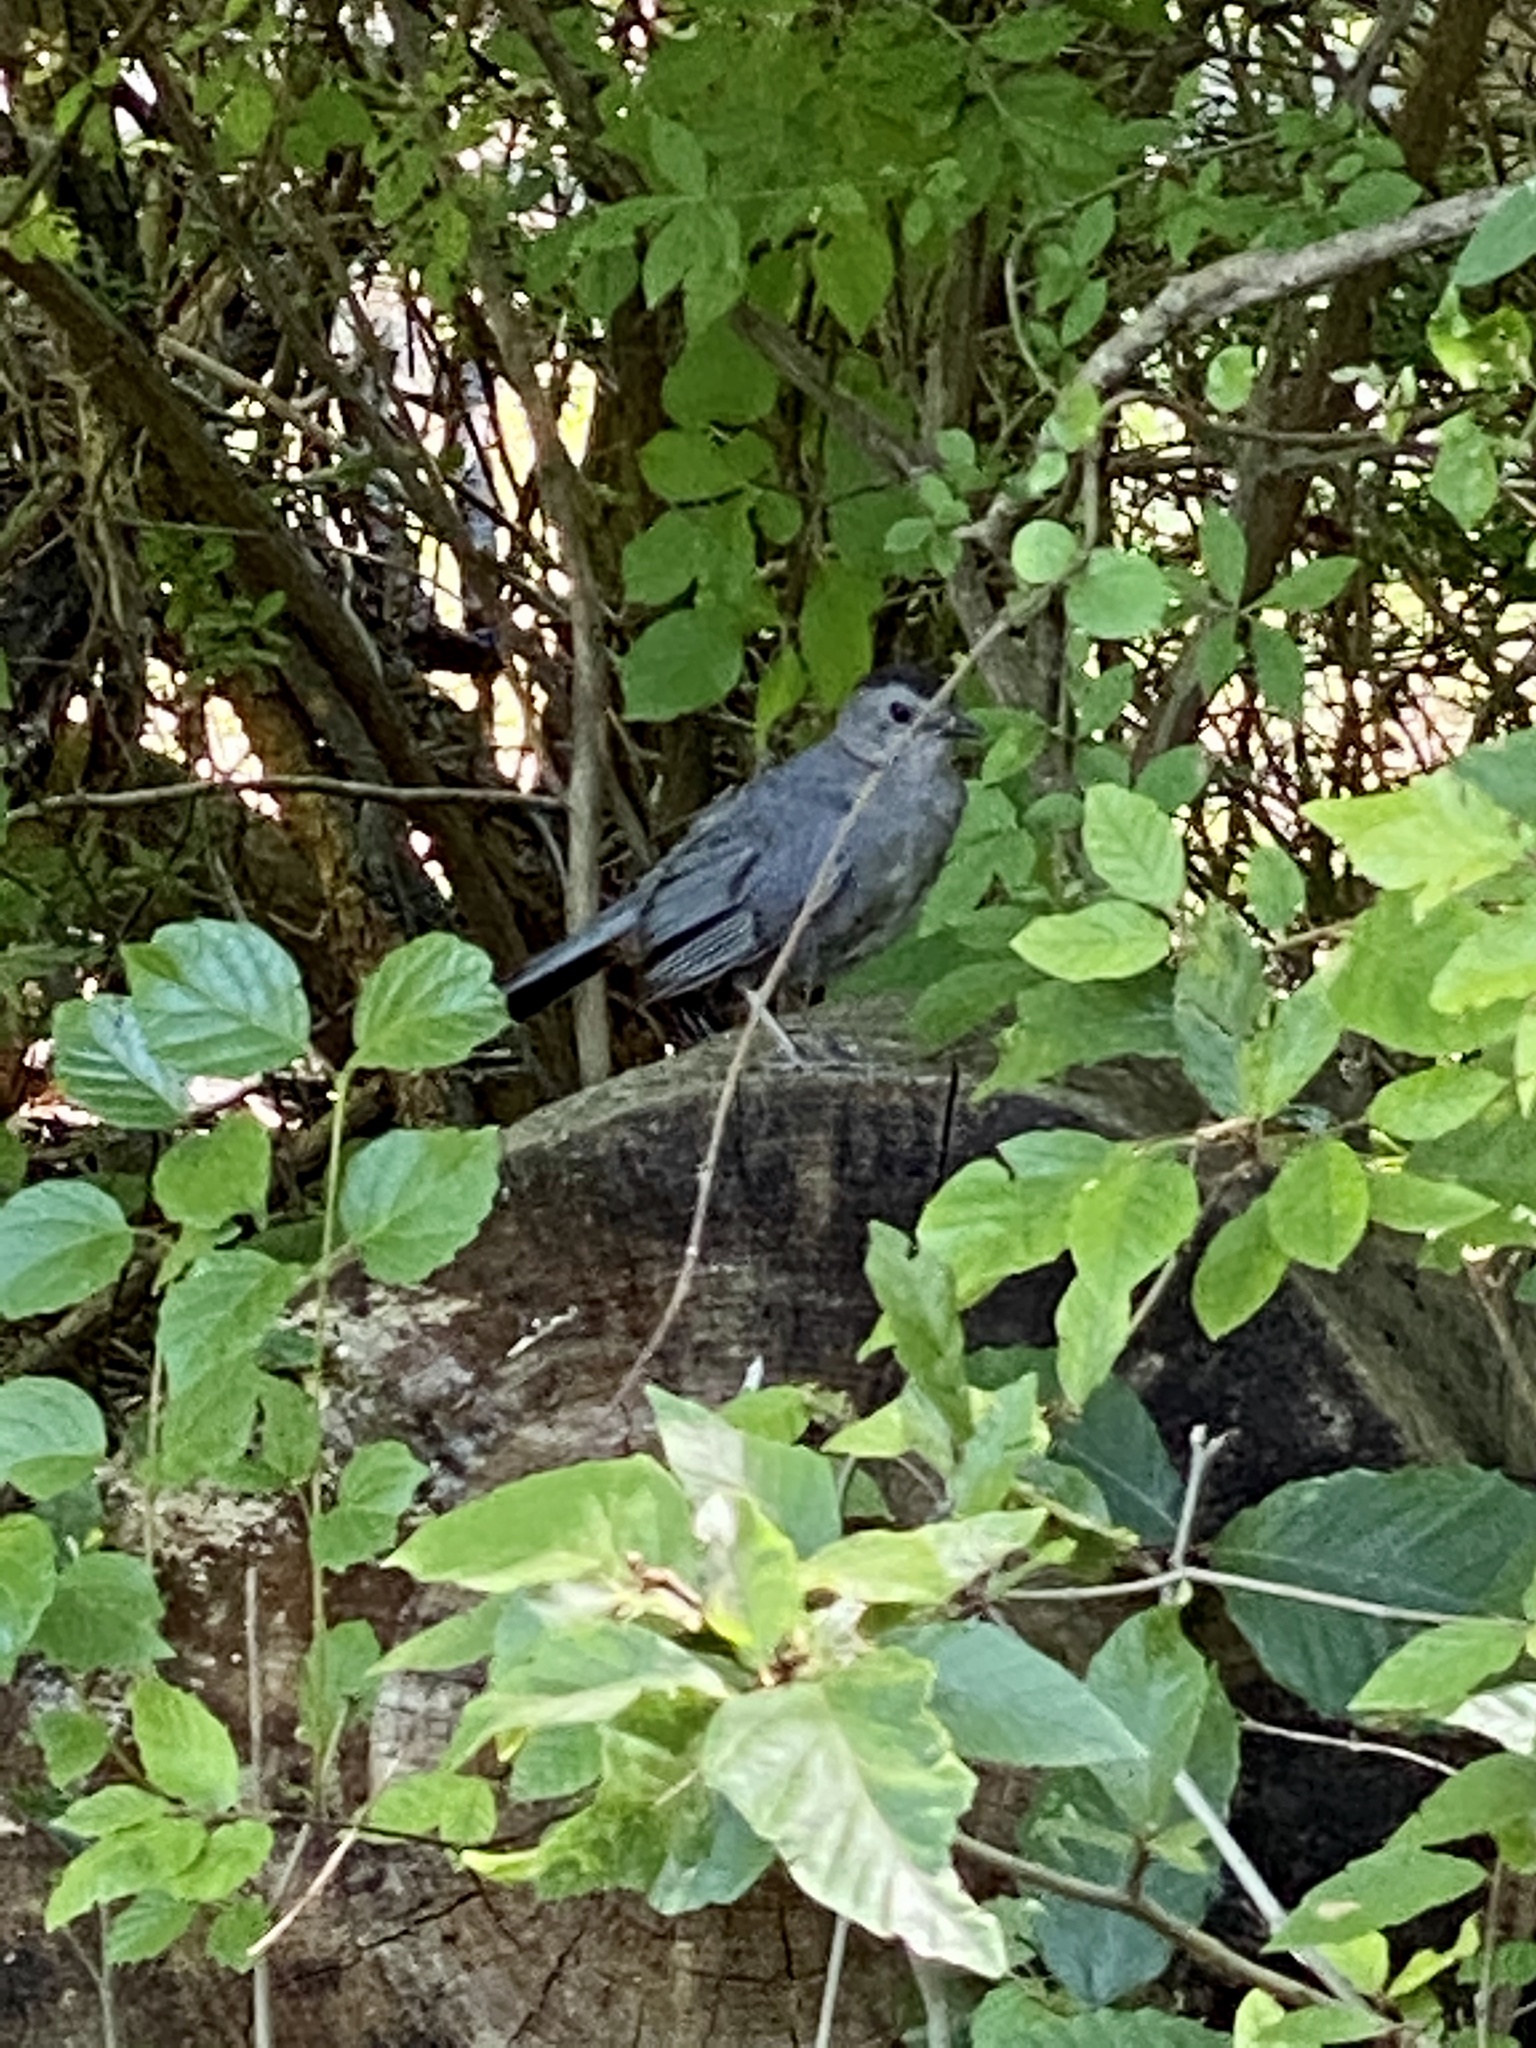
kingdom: Animalia
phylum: Chordata
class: Aves
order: Passeriformes
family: Mimidae
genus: Dumetella
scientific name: Dumetella carolinensis
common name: Gray catbird
